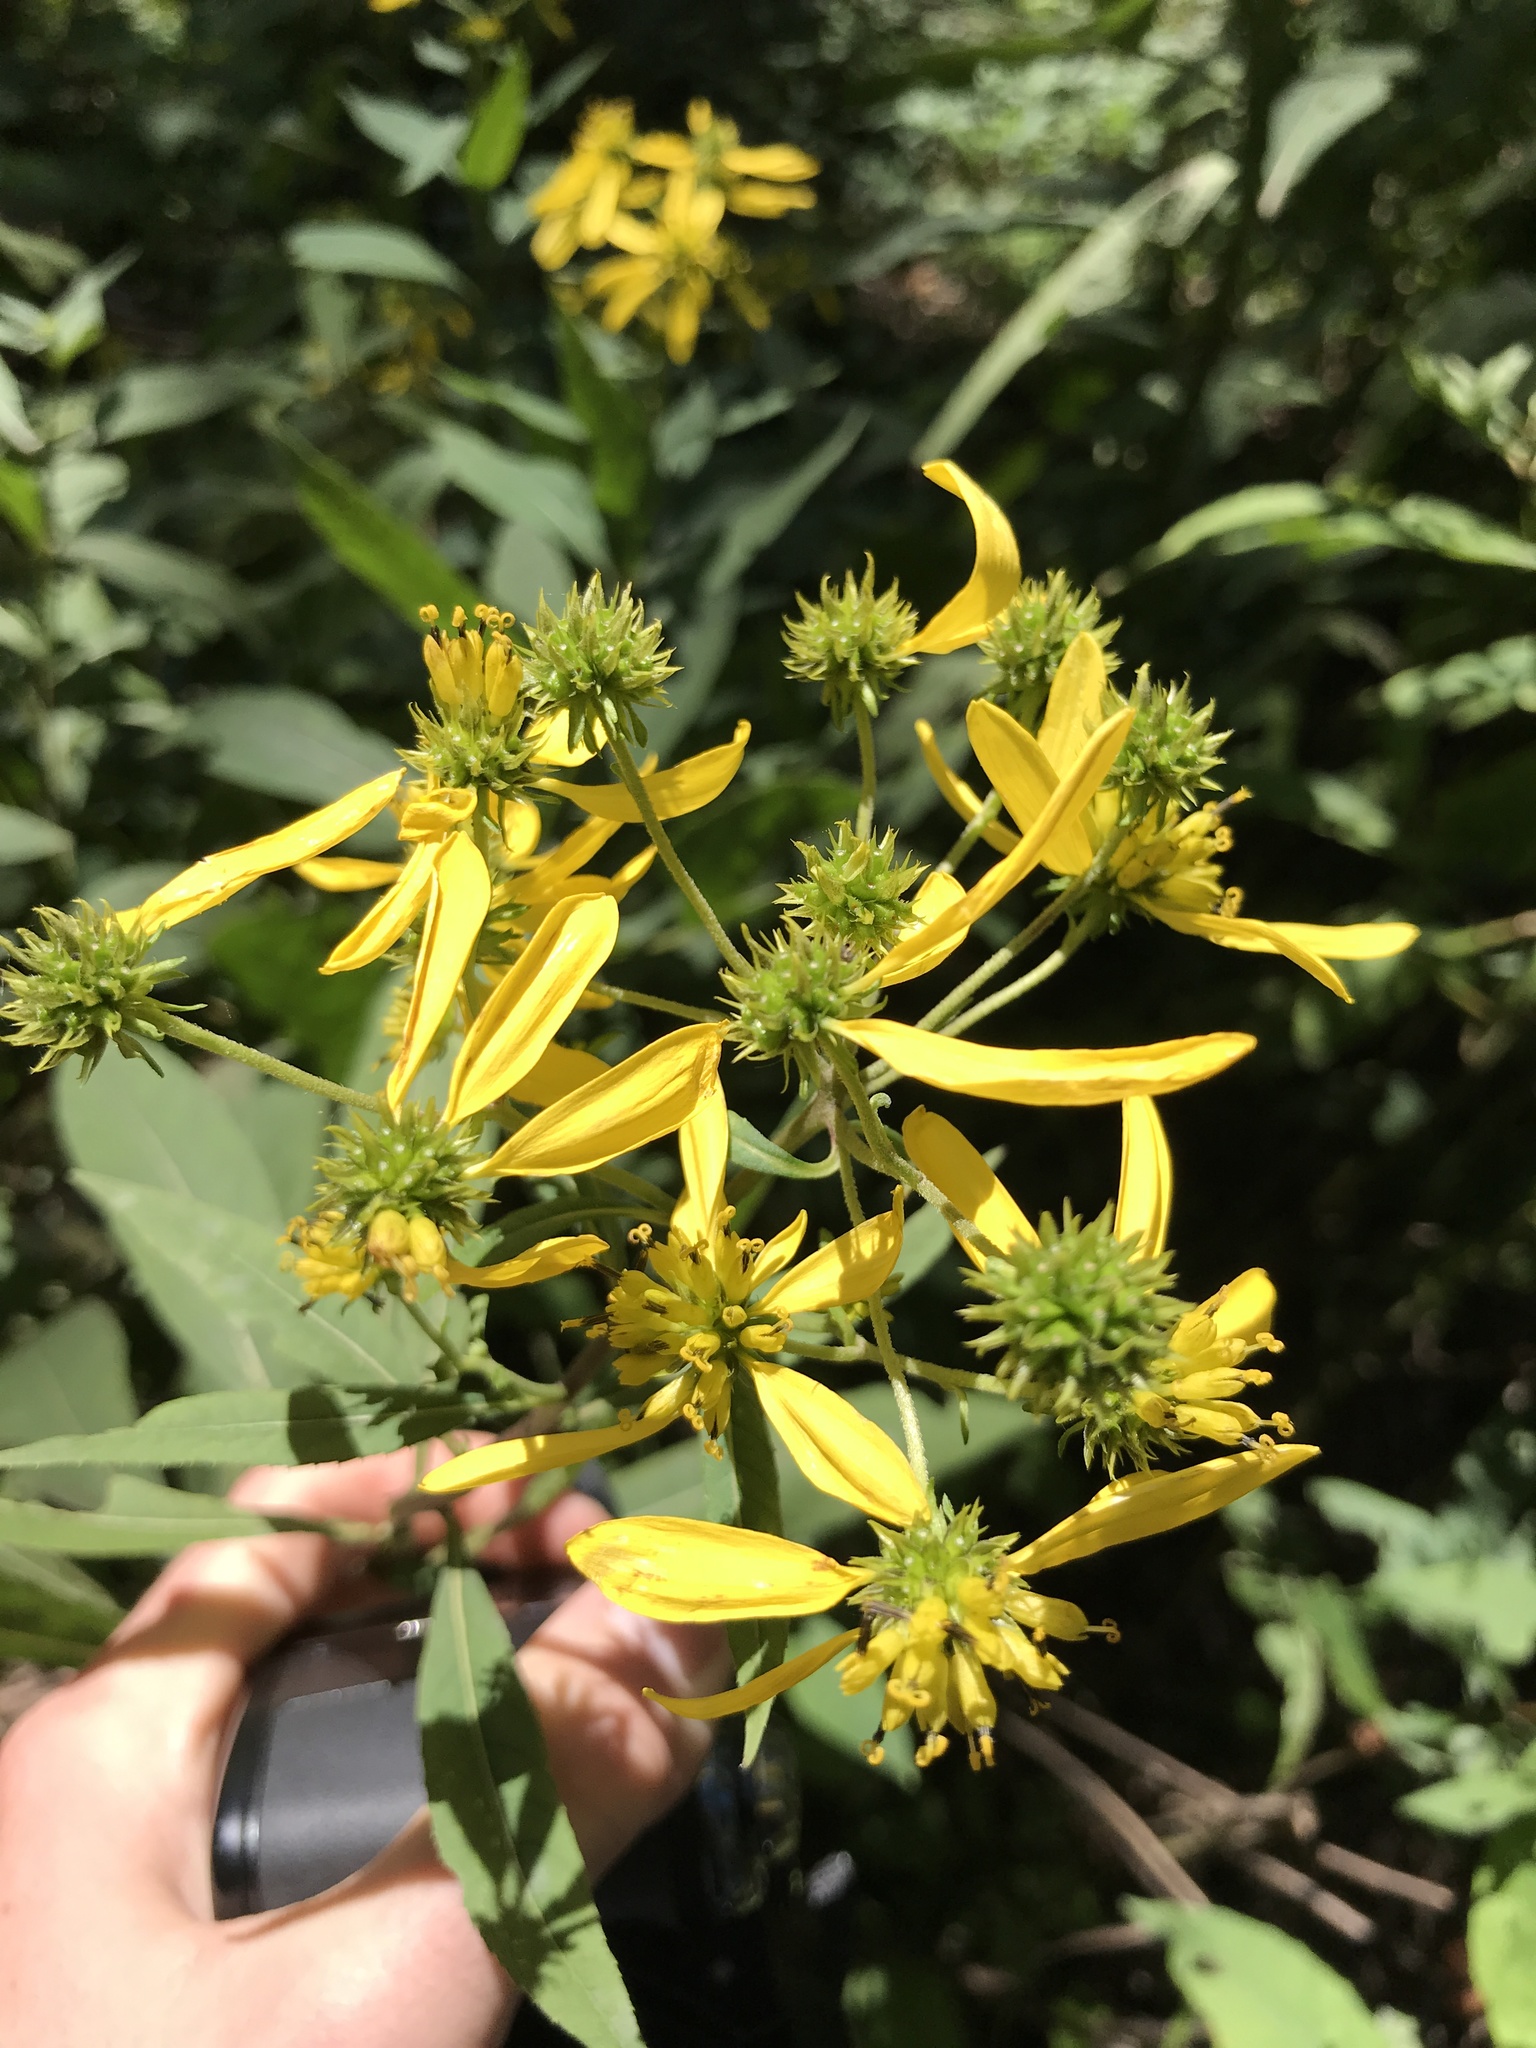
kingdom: Plantae
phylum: Tracheophyta
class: Magnoliopsida
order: Asterales
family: Asteraceae
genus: Verbesina
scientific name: Verbesina alternifolia
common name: Wingstem
